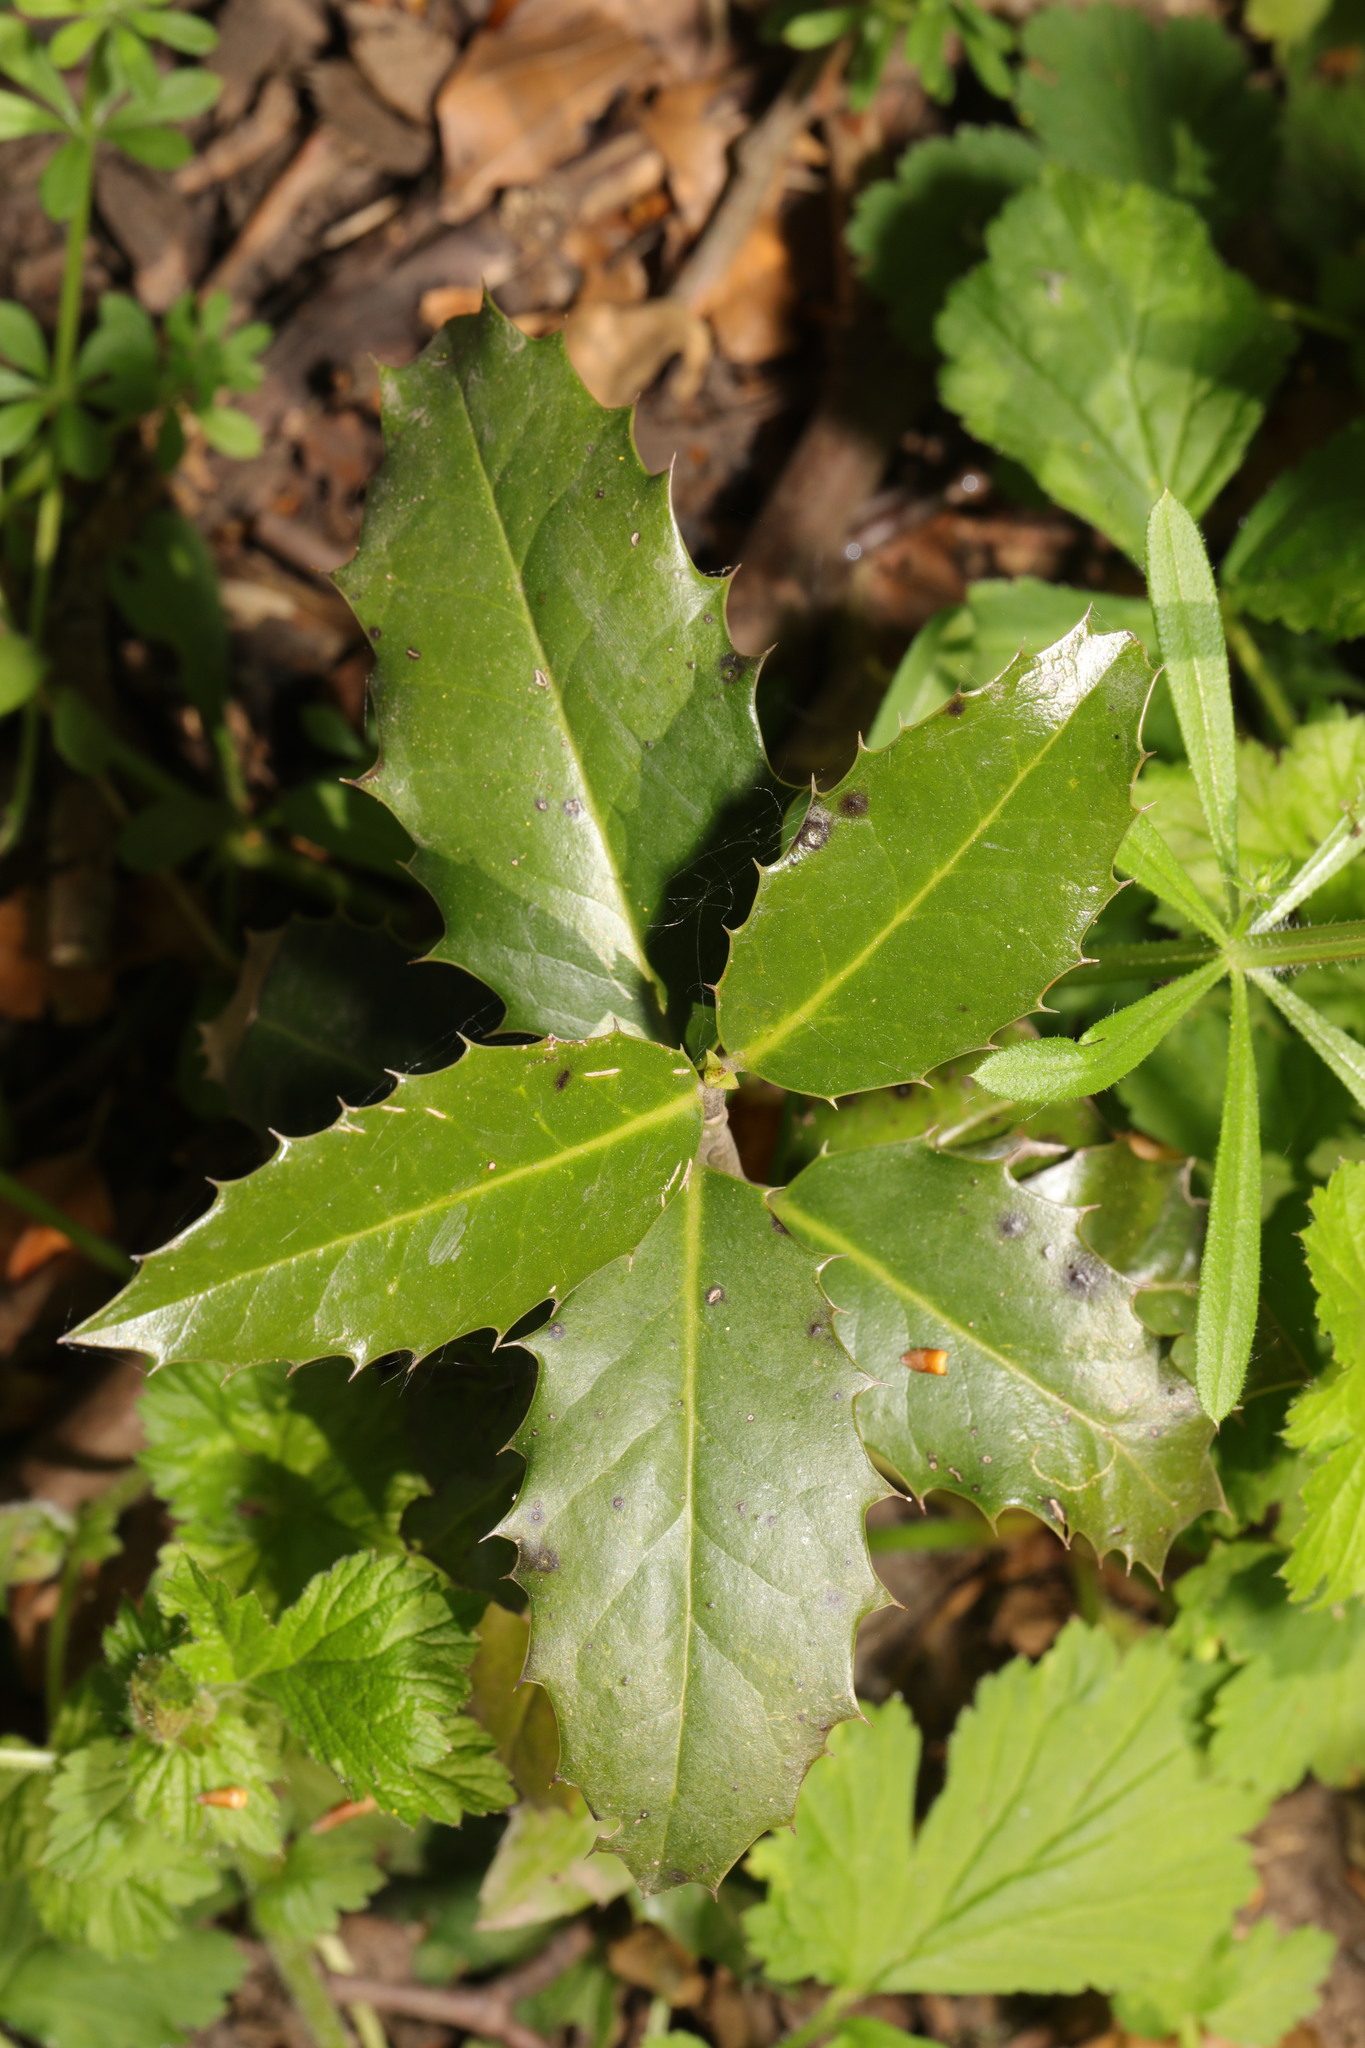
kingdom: Plantae
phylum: Tracheophyta
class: Magnoliopsida
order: Aquifoliales
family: Aquifoliaceae
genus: Ilex
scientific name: Ilex aquifolium
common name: English holly
